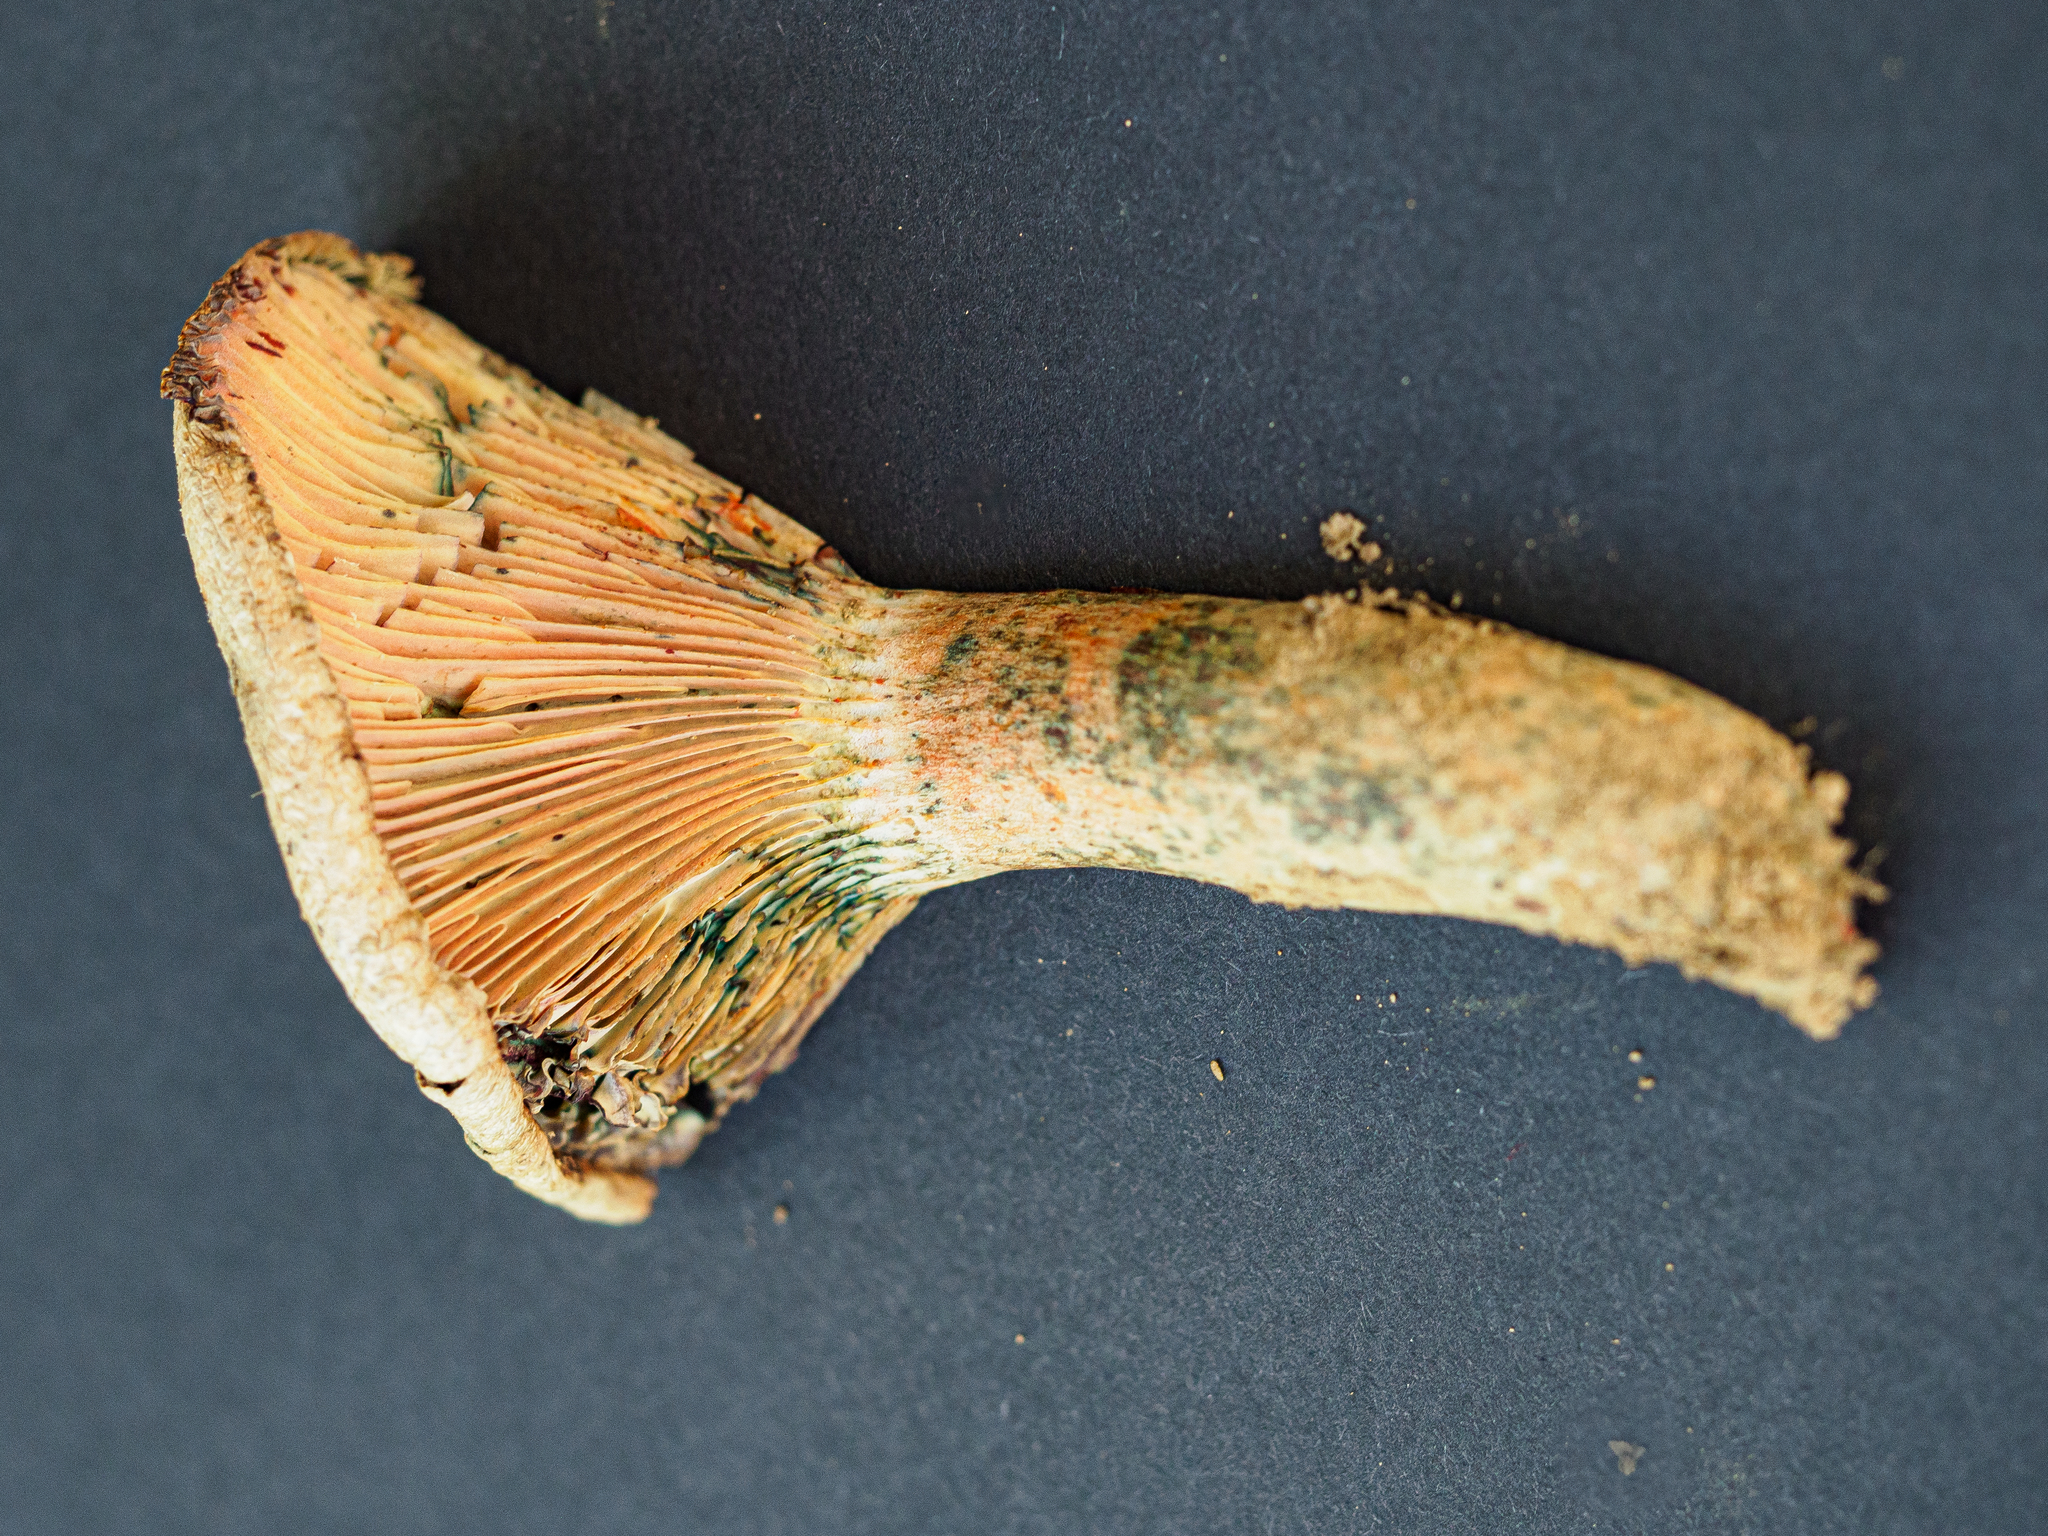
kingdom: Fungi
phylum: Basidiomycota
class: Agaricomycetes
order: Russulales
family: Russulaceae
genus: Lactarius
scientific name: Lactarius deterrimus
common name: False saffron milkcap
